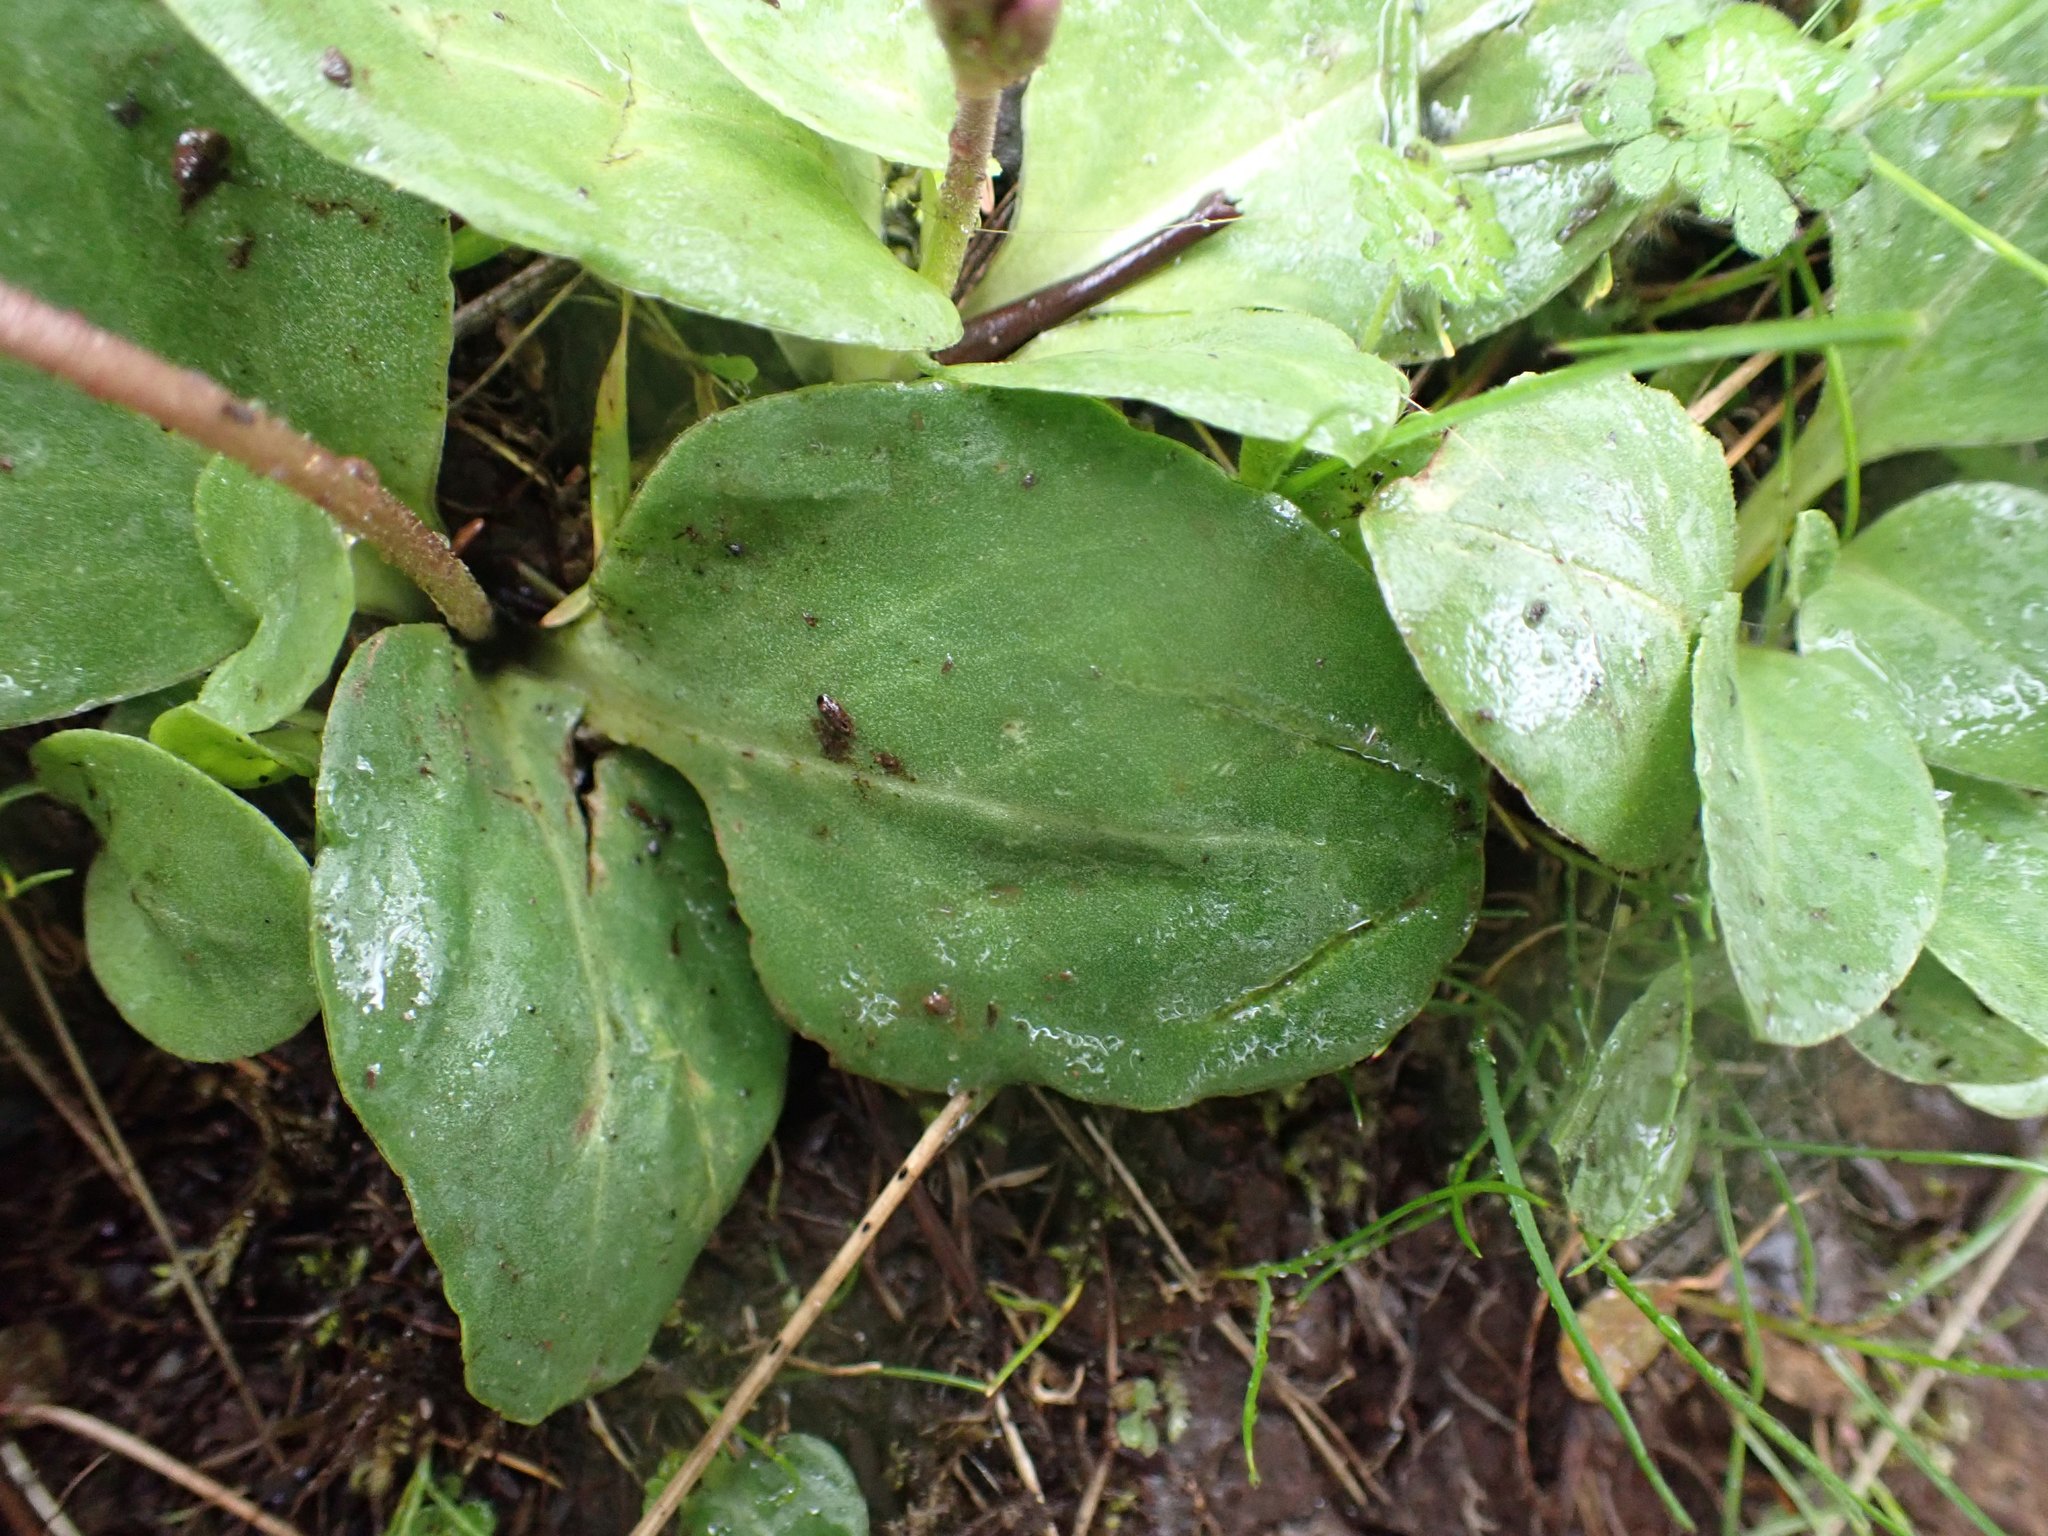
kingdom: Plantae
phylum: Tracheophyta
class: Magnoliopsida
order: Ericales
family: Primulaceae
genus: Dodecatheon
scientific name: Dodecatheon hendersonii
